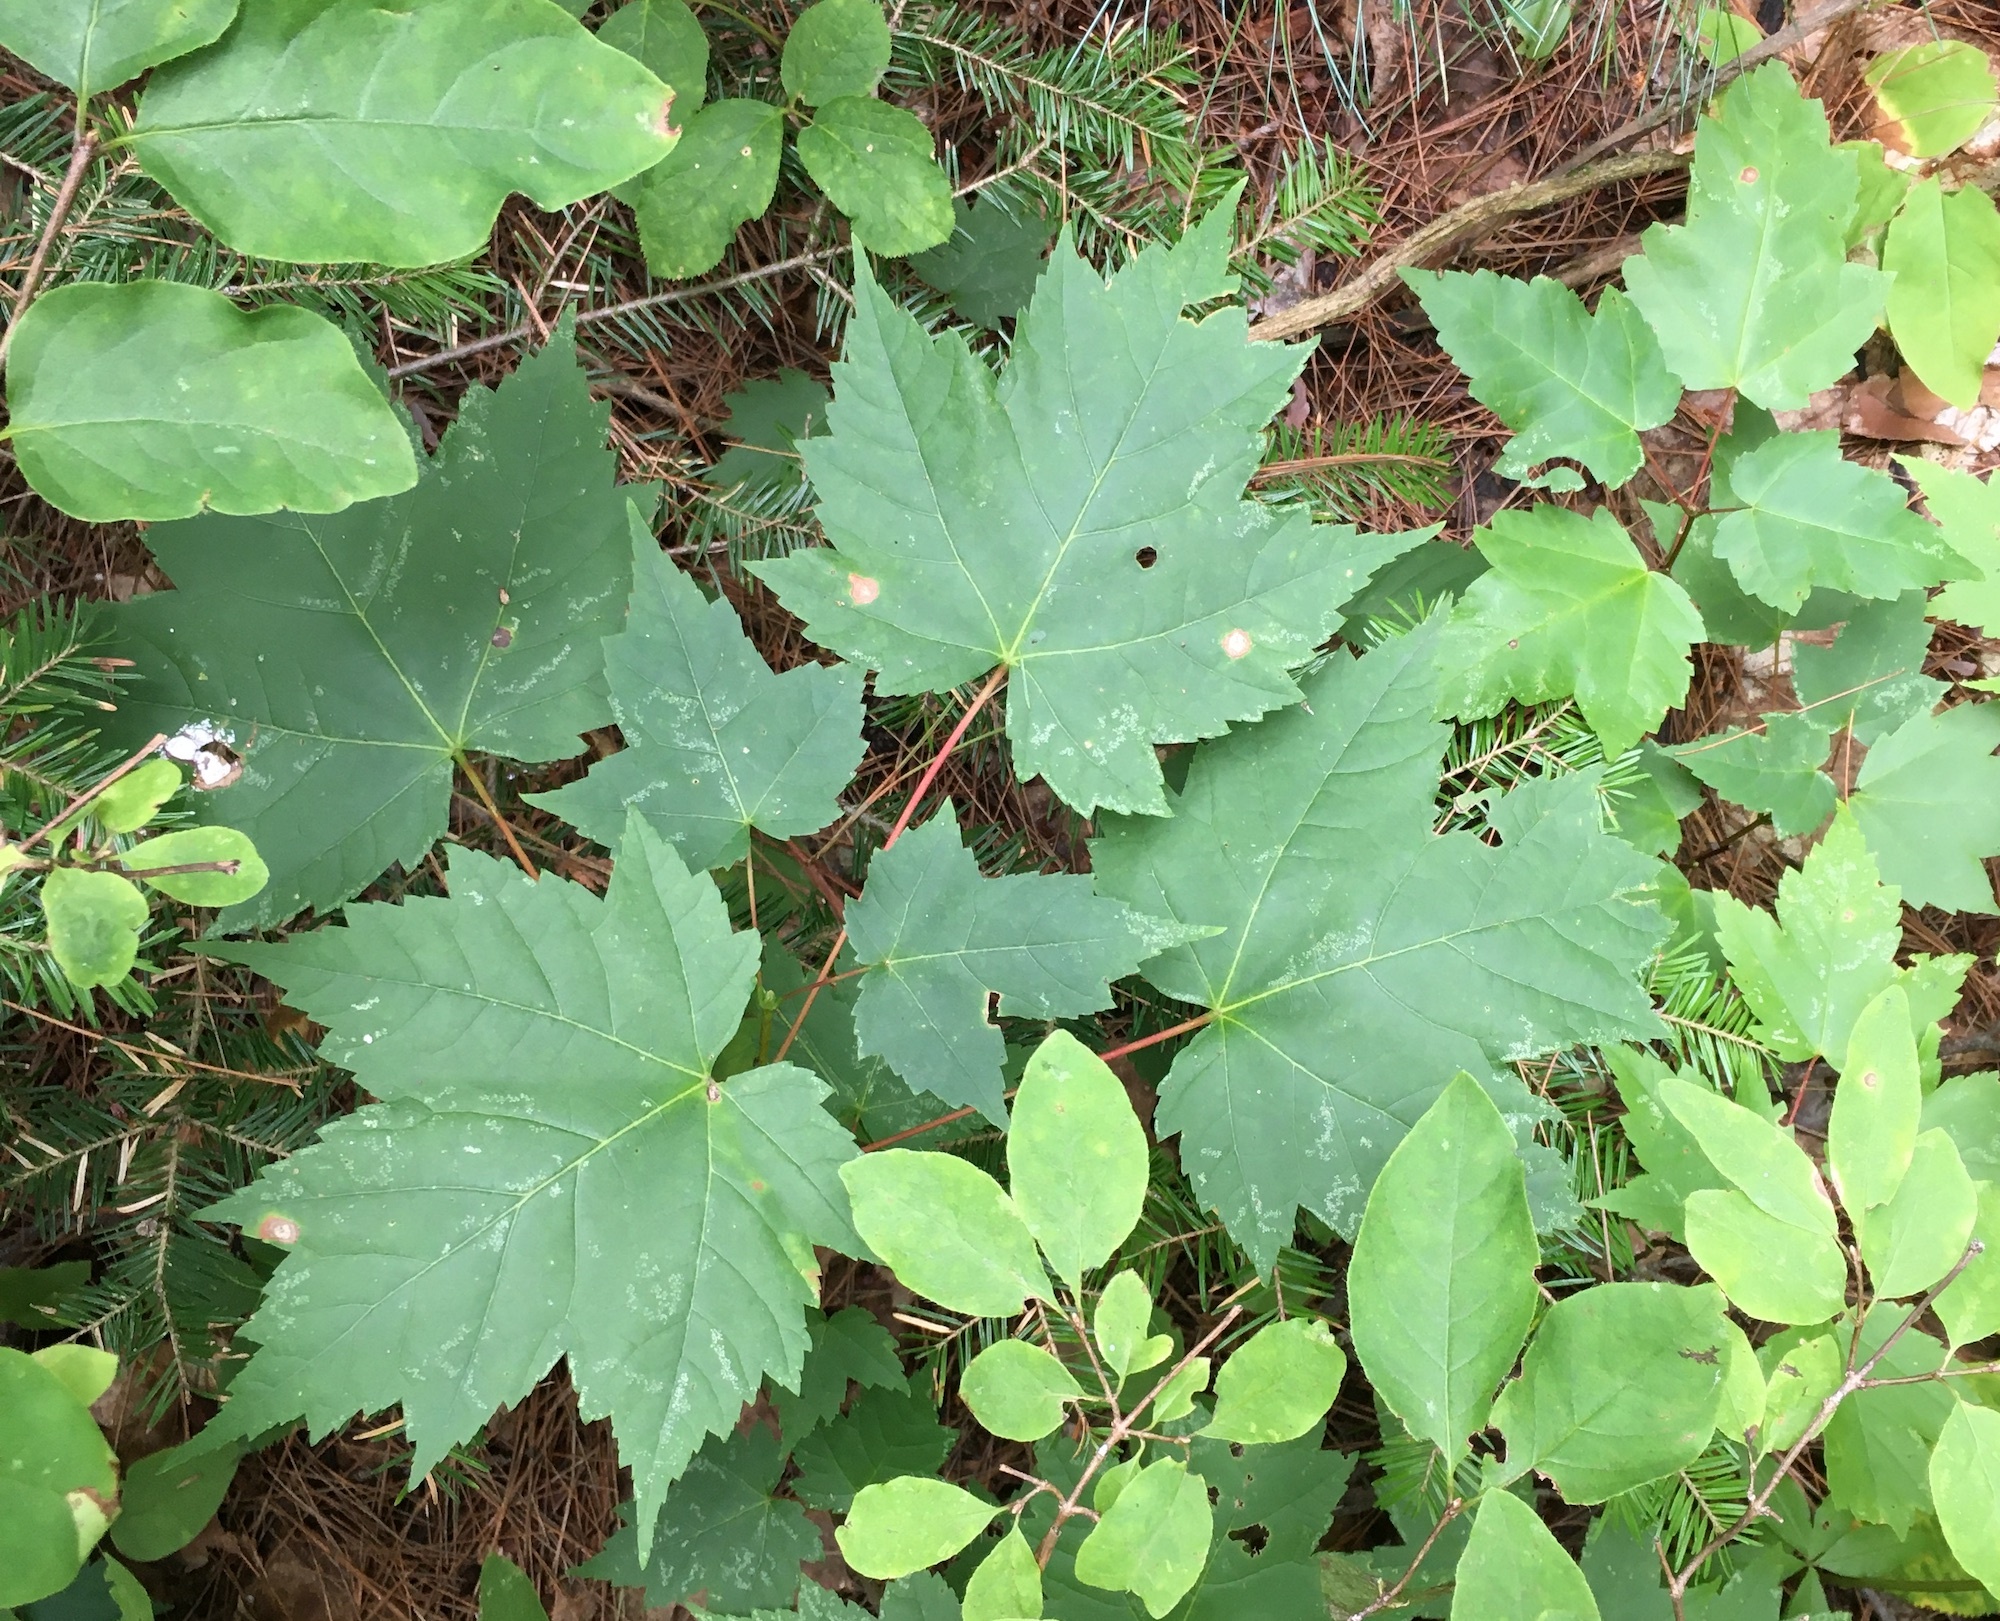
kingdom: Plantae
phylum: Tracheophyta
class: Magnoliopsida
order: Sapindales
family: Sapindaceae
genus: Acer
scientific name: Acer rubrum
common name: Red maple
